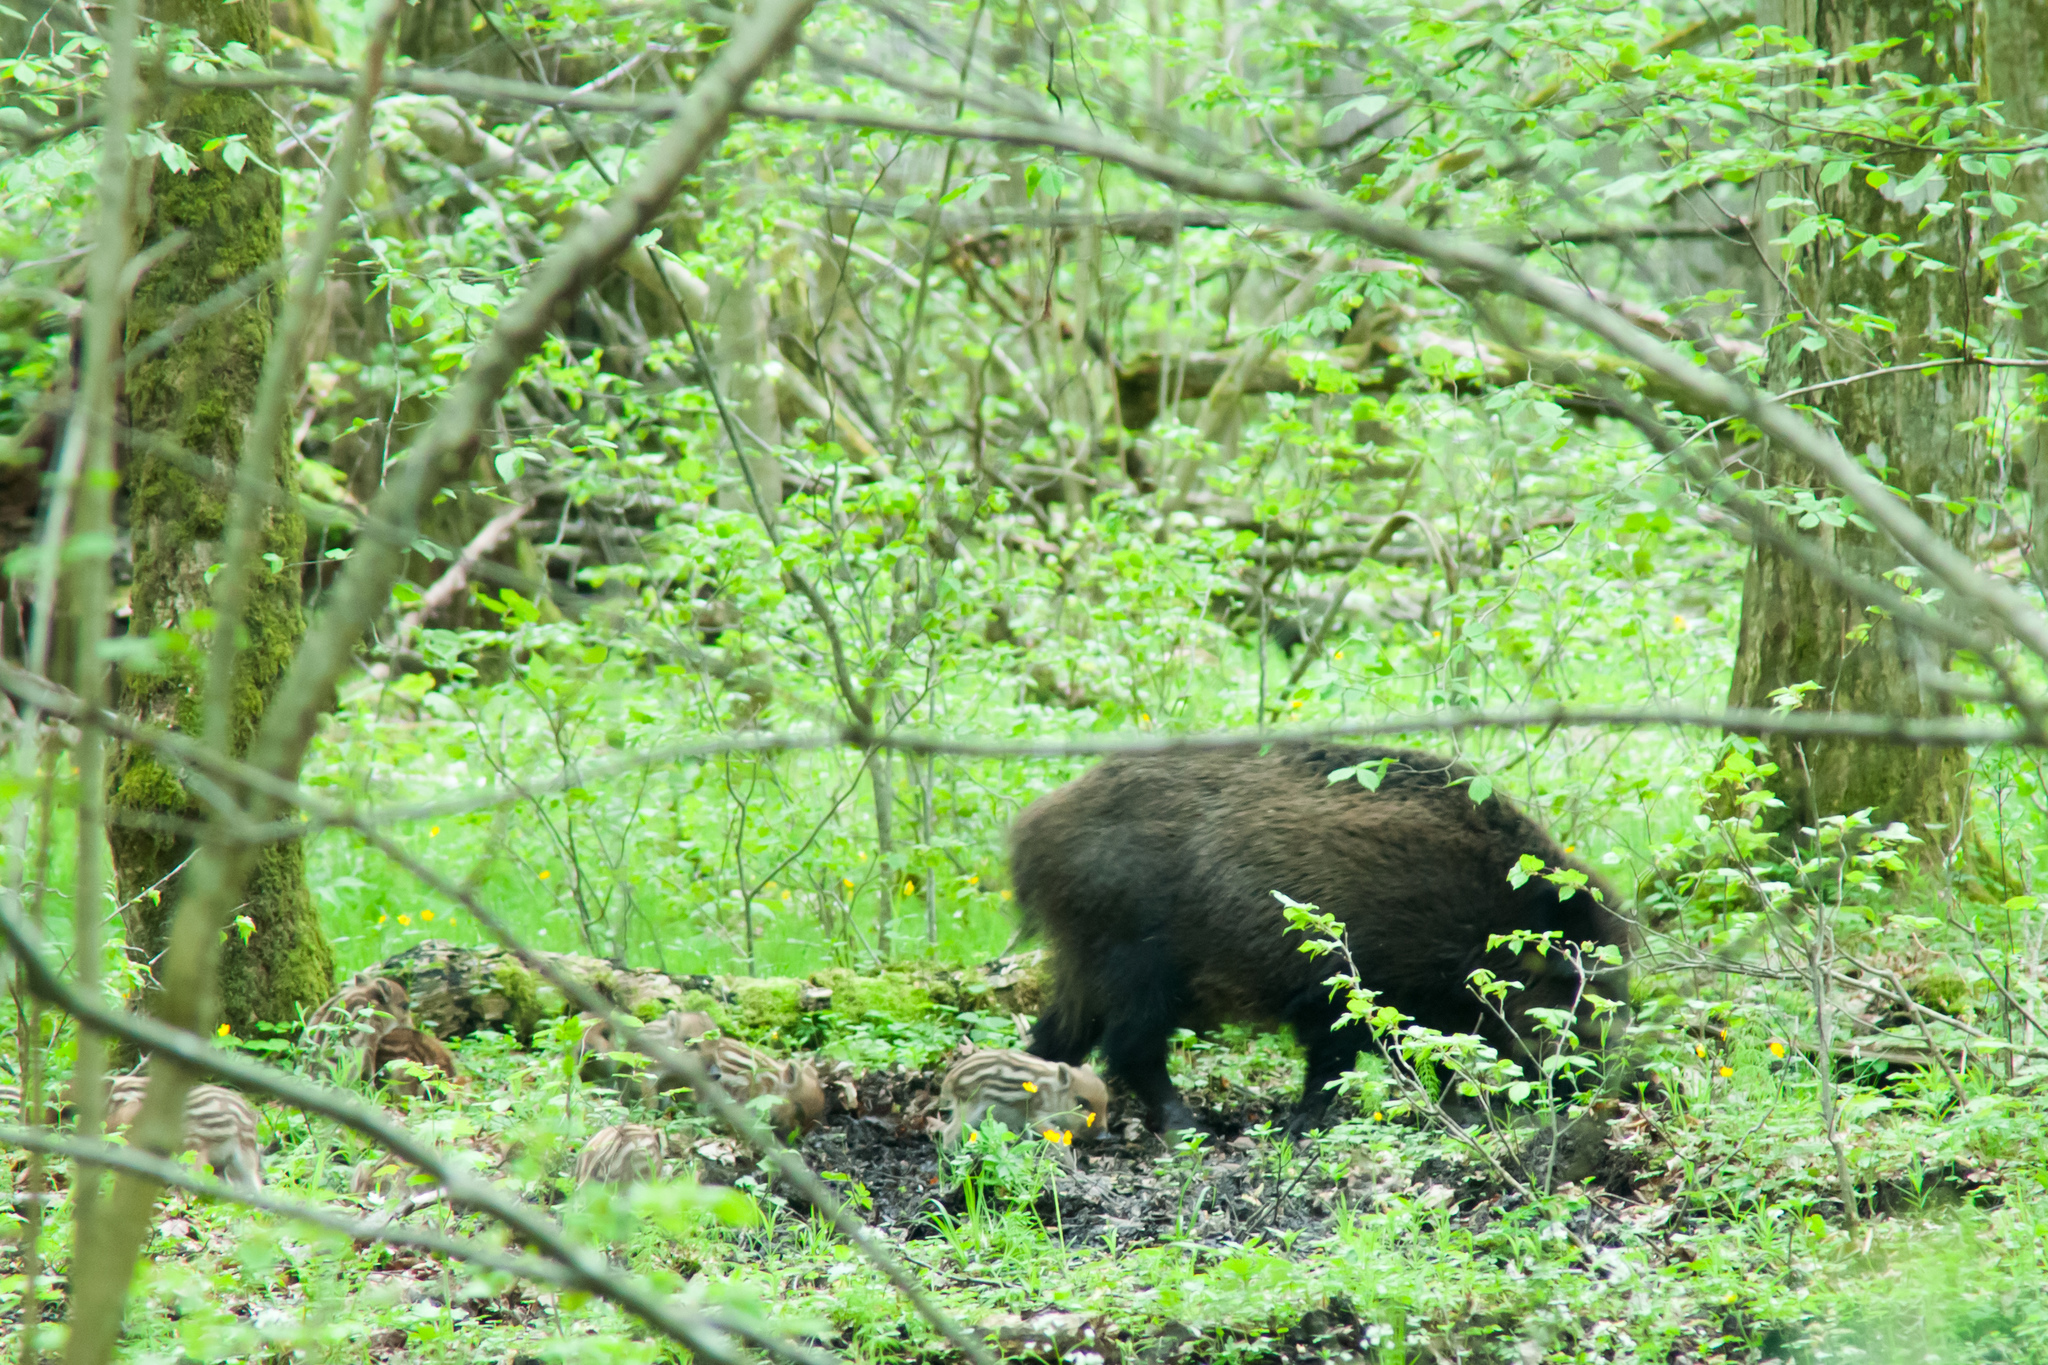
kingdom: Animalia
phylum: Chordata
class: Mammalia
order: Artiodactyla
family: Suidae
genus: Sus
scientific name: Sus scrofa
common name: Wild boar
